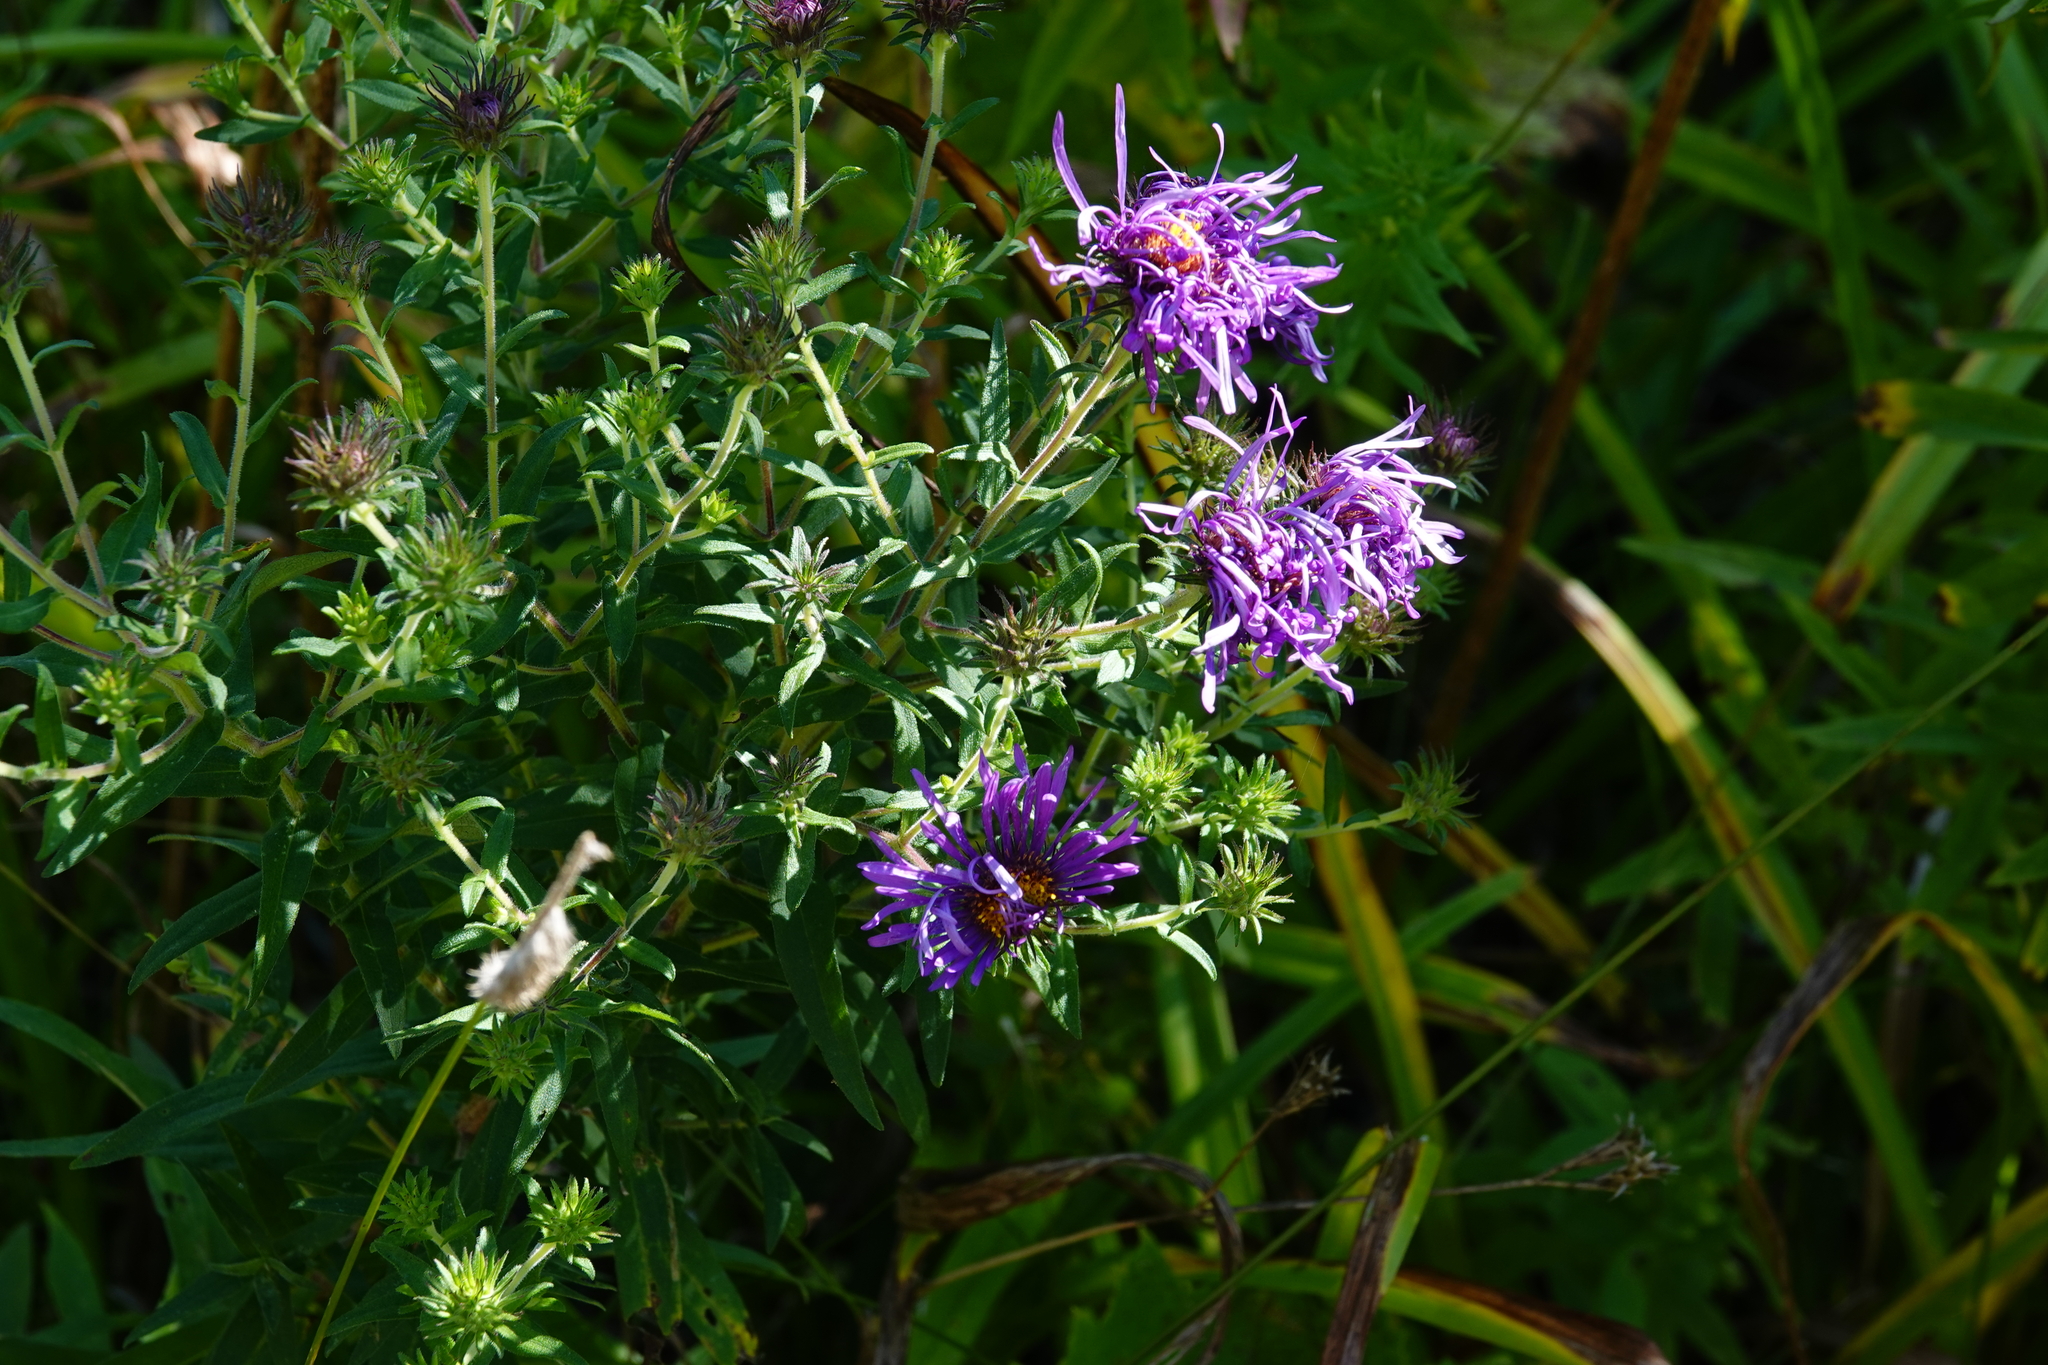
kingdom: Plantae
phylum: Tracheophyta
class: Magnoliopsida
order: Asterales
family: Asteraceae
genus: Symphyotrichum
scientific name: Symphyotrichum novae-angliae
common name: Michaelmas daisy
